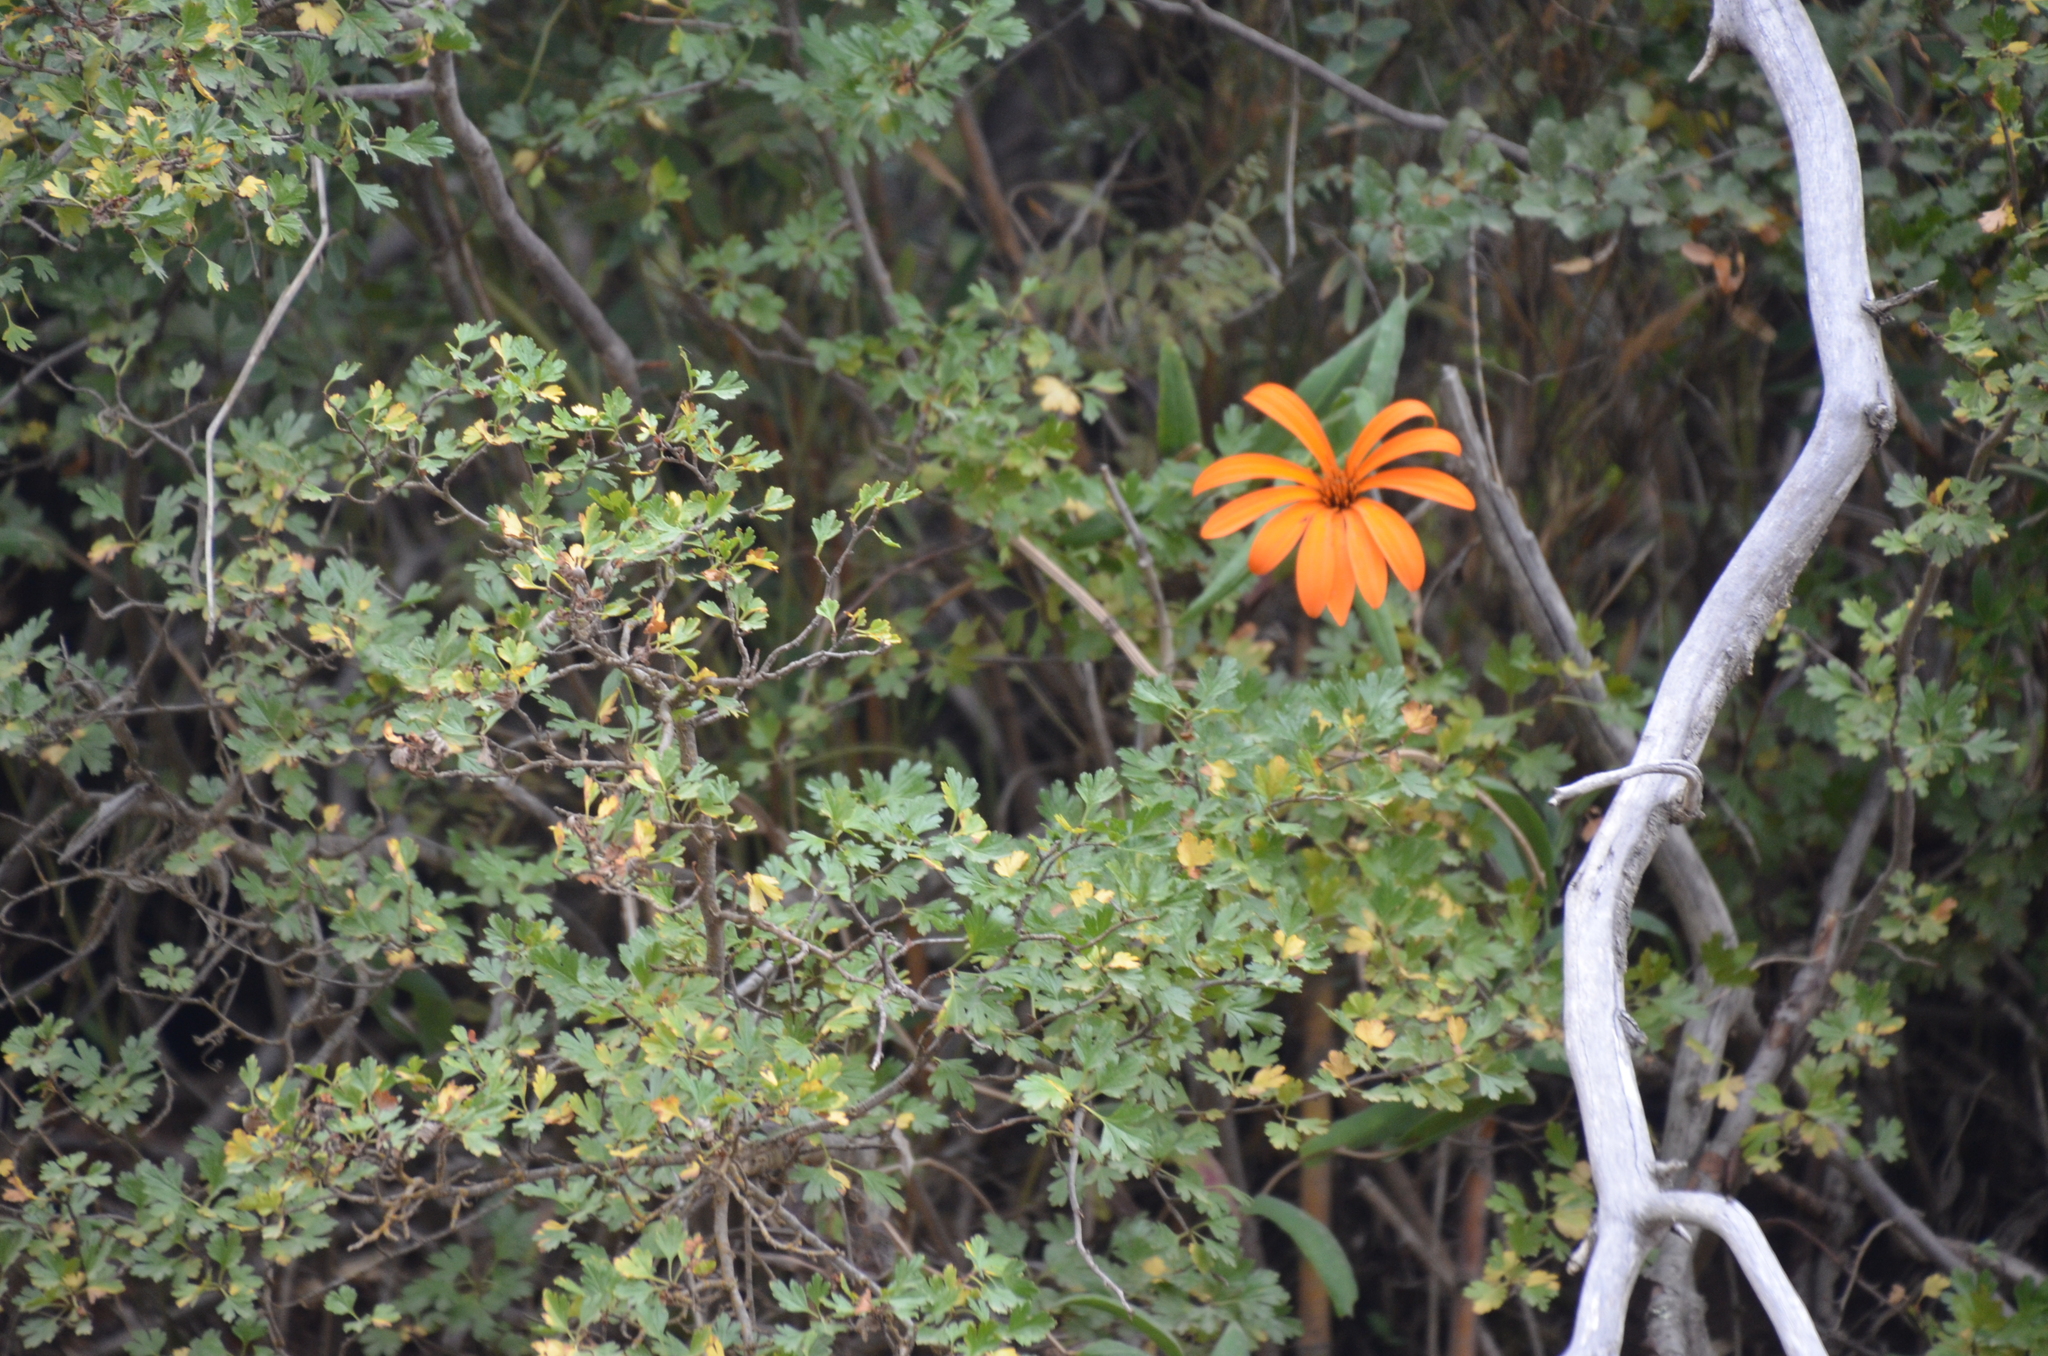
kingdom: Plantae
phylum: Tracheophyta
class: Magnoliopsida
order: Asterales
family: Asteraceae
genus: Mutisia
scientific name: Mutisia decurrens
